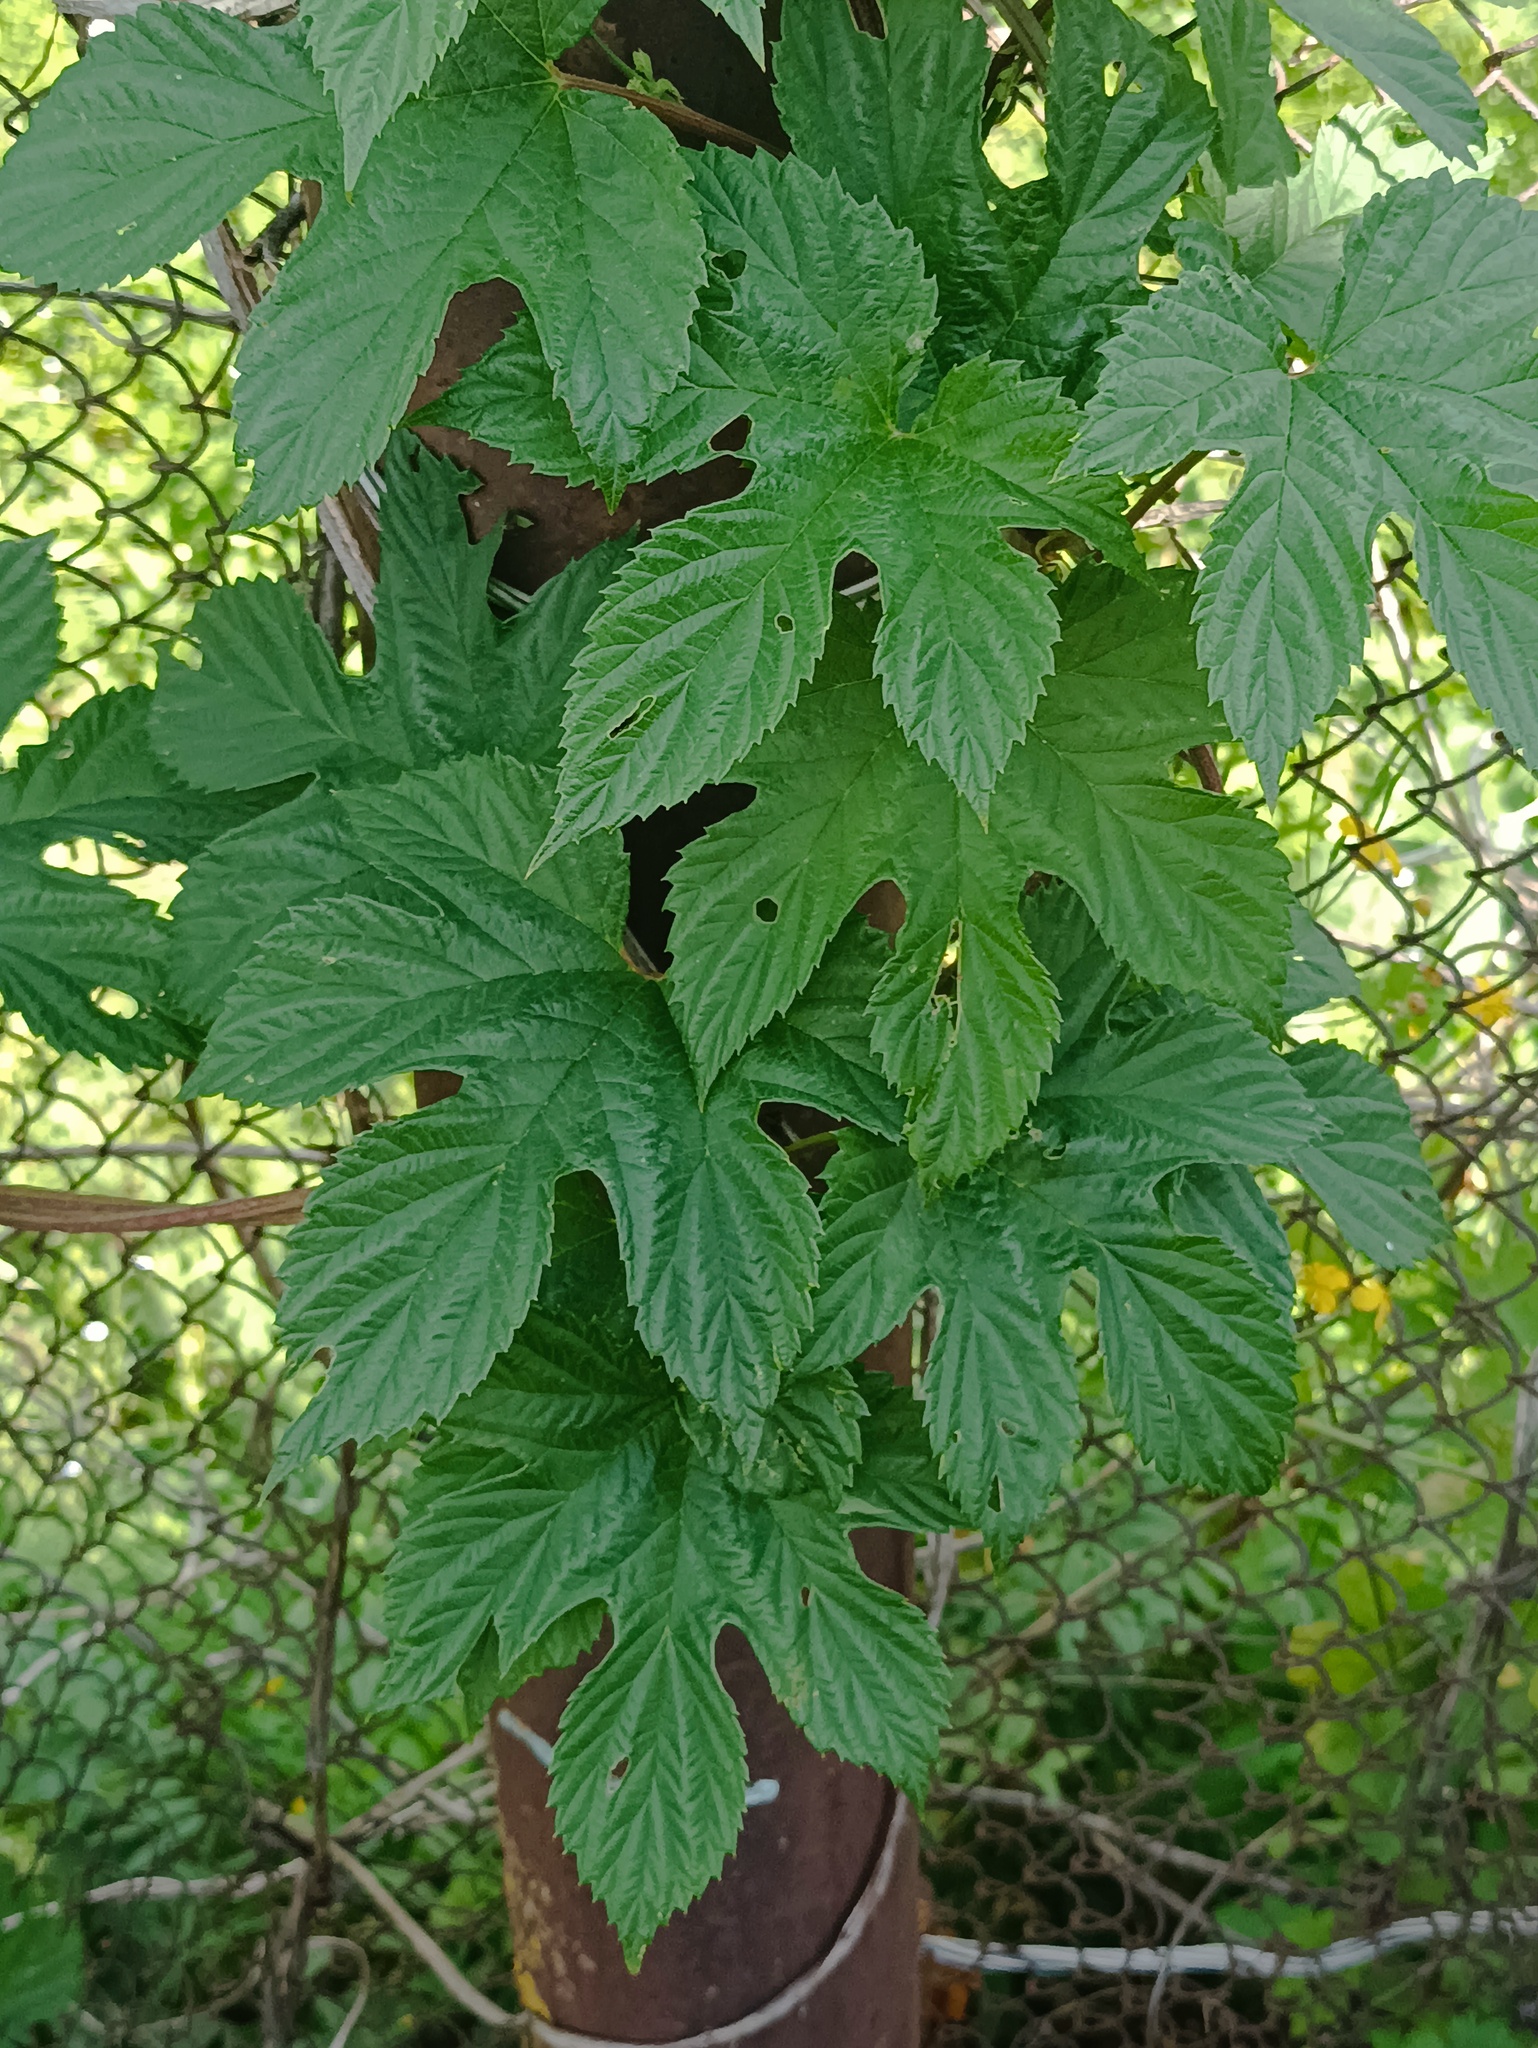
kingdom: Plantae
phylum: Tracheophyta
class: Magnoliopsida
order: Rosales
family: Cannabaceae
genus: Humulus
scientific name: Humulus lupulus
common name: Hop
